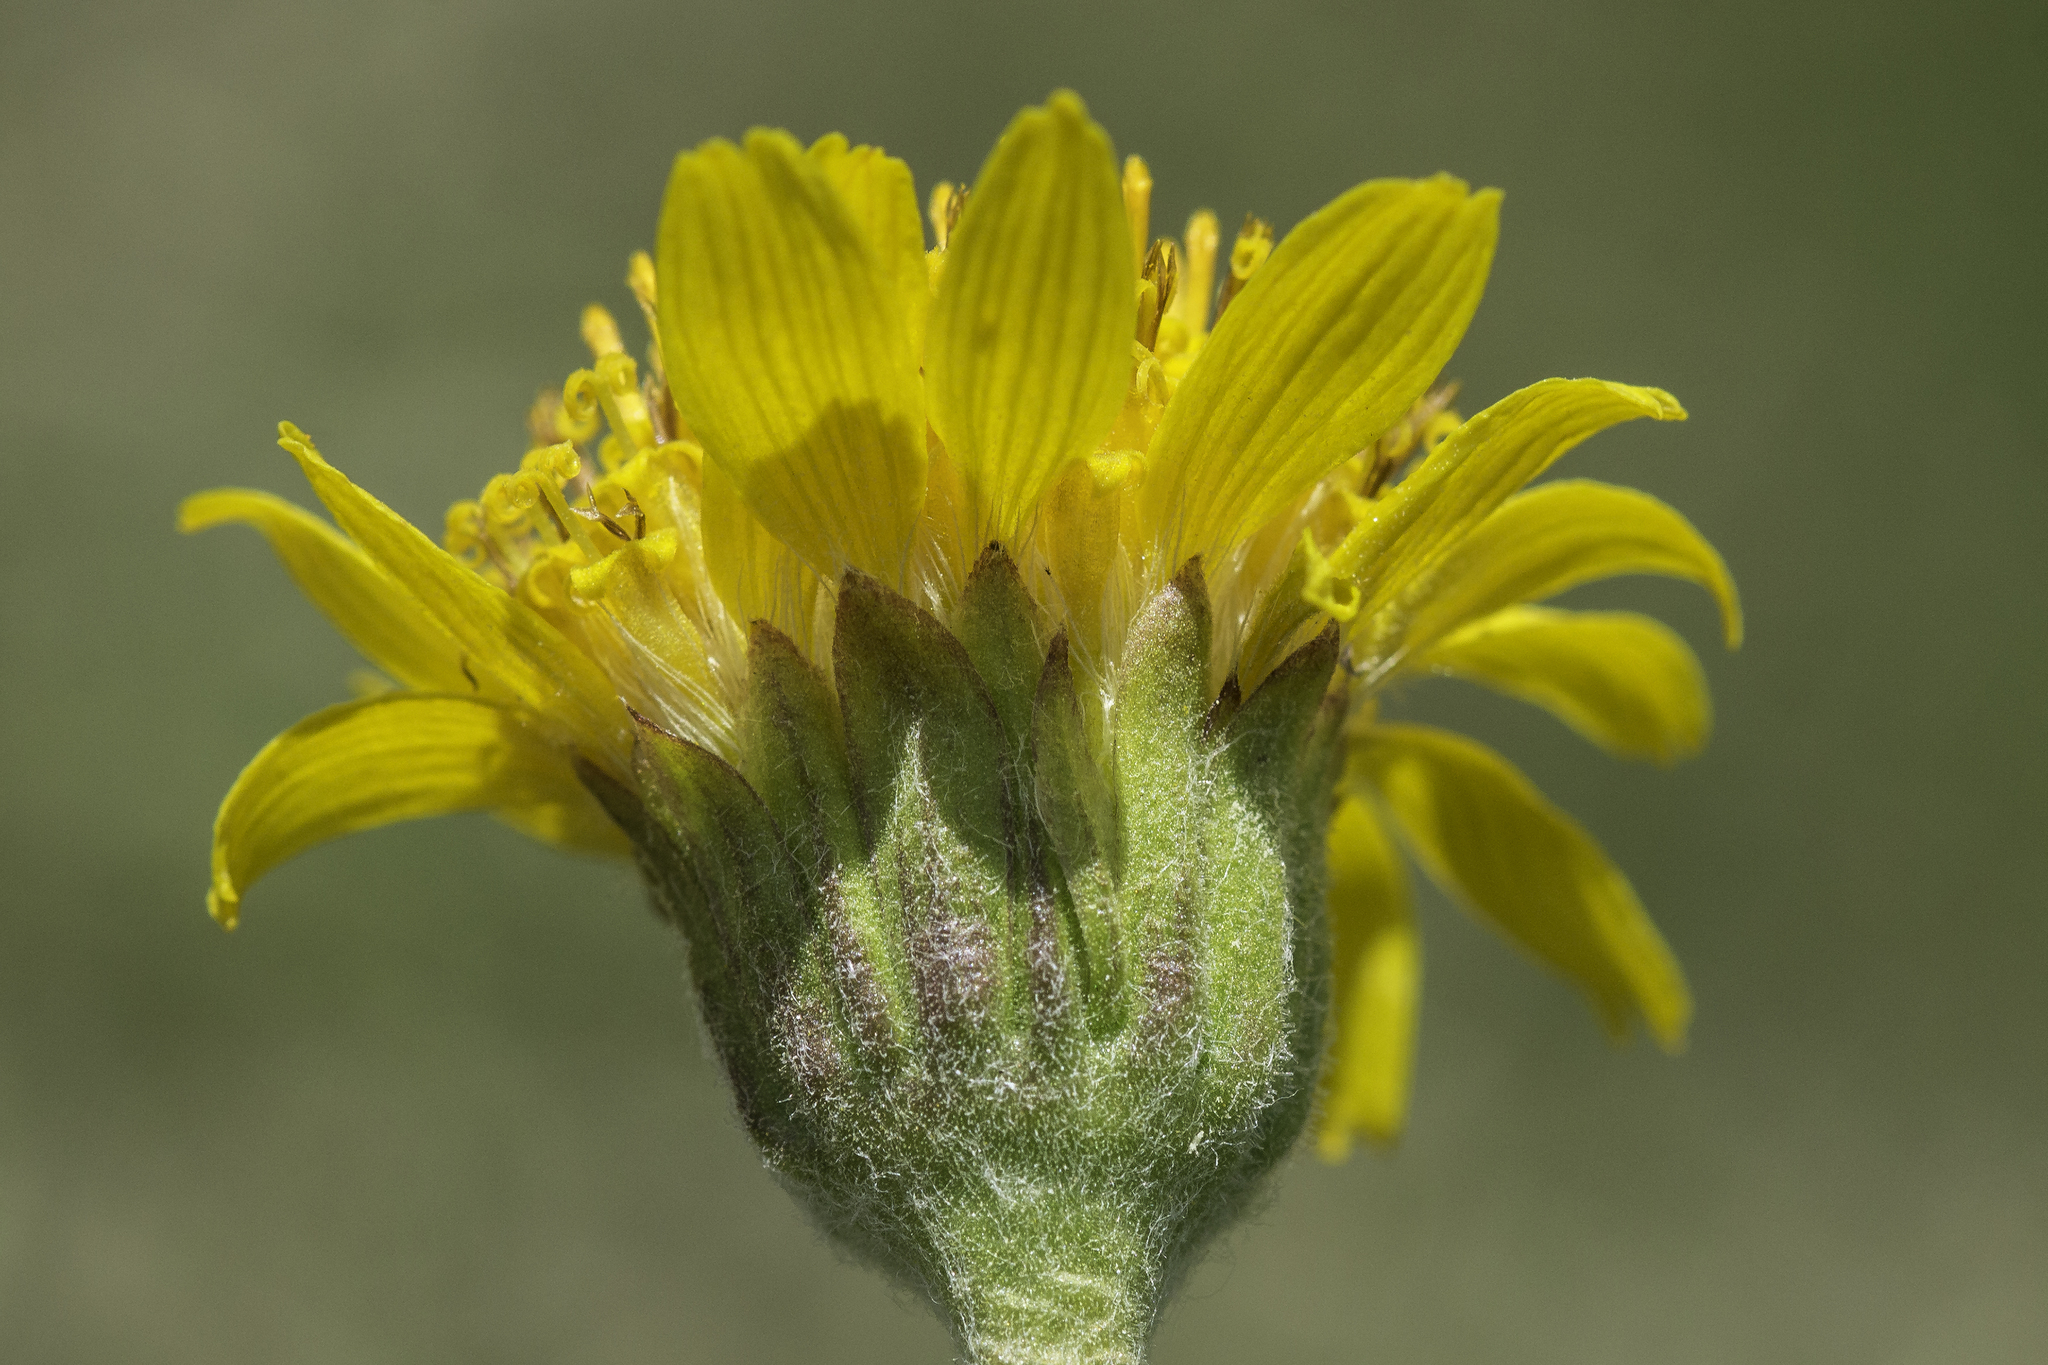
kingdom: Plantae
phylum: Tracheophyta
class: Magnoliopsida
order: Asterales
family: Asteraceae
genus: Arnica
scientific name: Arnica chamissonis
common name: Leafy arnica
